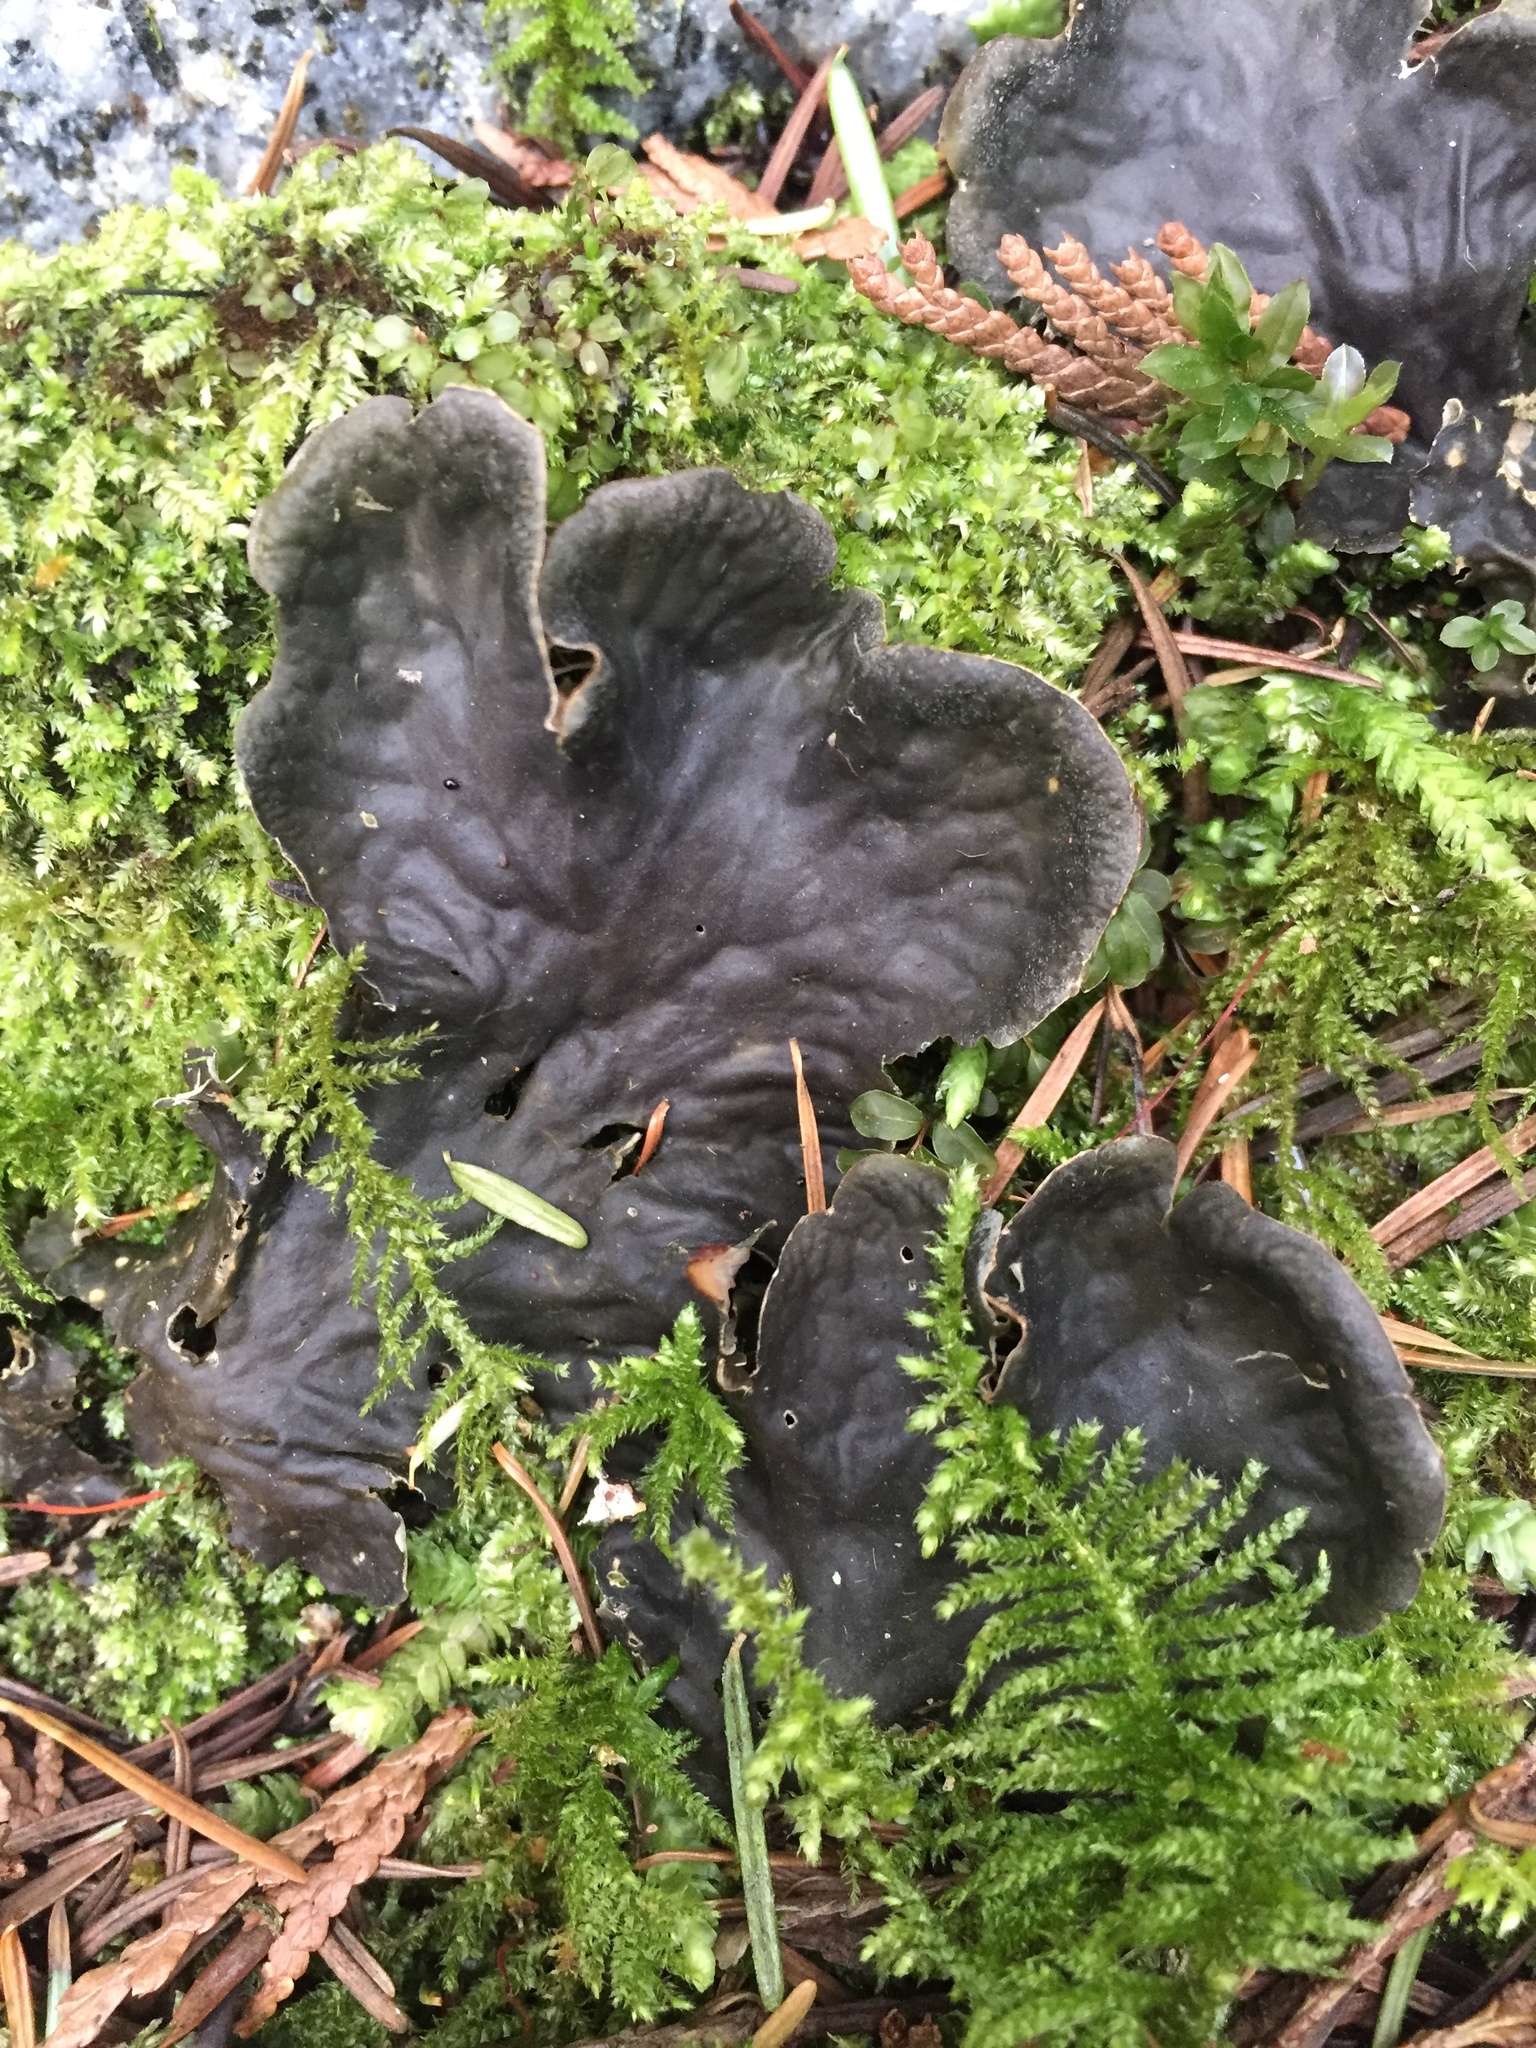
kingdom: Fungi
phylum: Ascomycota
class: Lecanoromycetes
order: Peltigerales
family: Peltigeraceae
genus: Peltigera
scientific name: Peltigera membranacea
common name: Membranous pelt lichen
